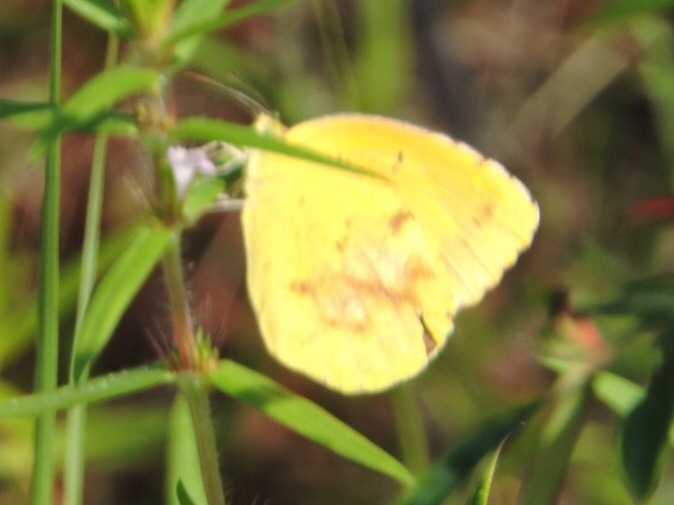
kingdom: Animalia
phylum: Arthropoda
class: Insecta
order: Lepidoptera
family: Pieridae
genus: Abaeis
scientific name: Abaeis nicippe
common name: Sleepy orange
